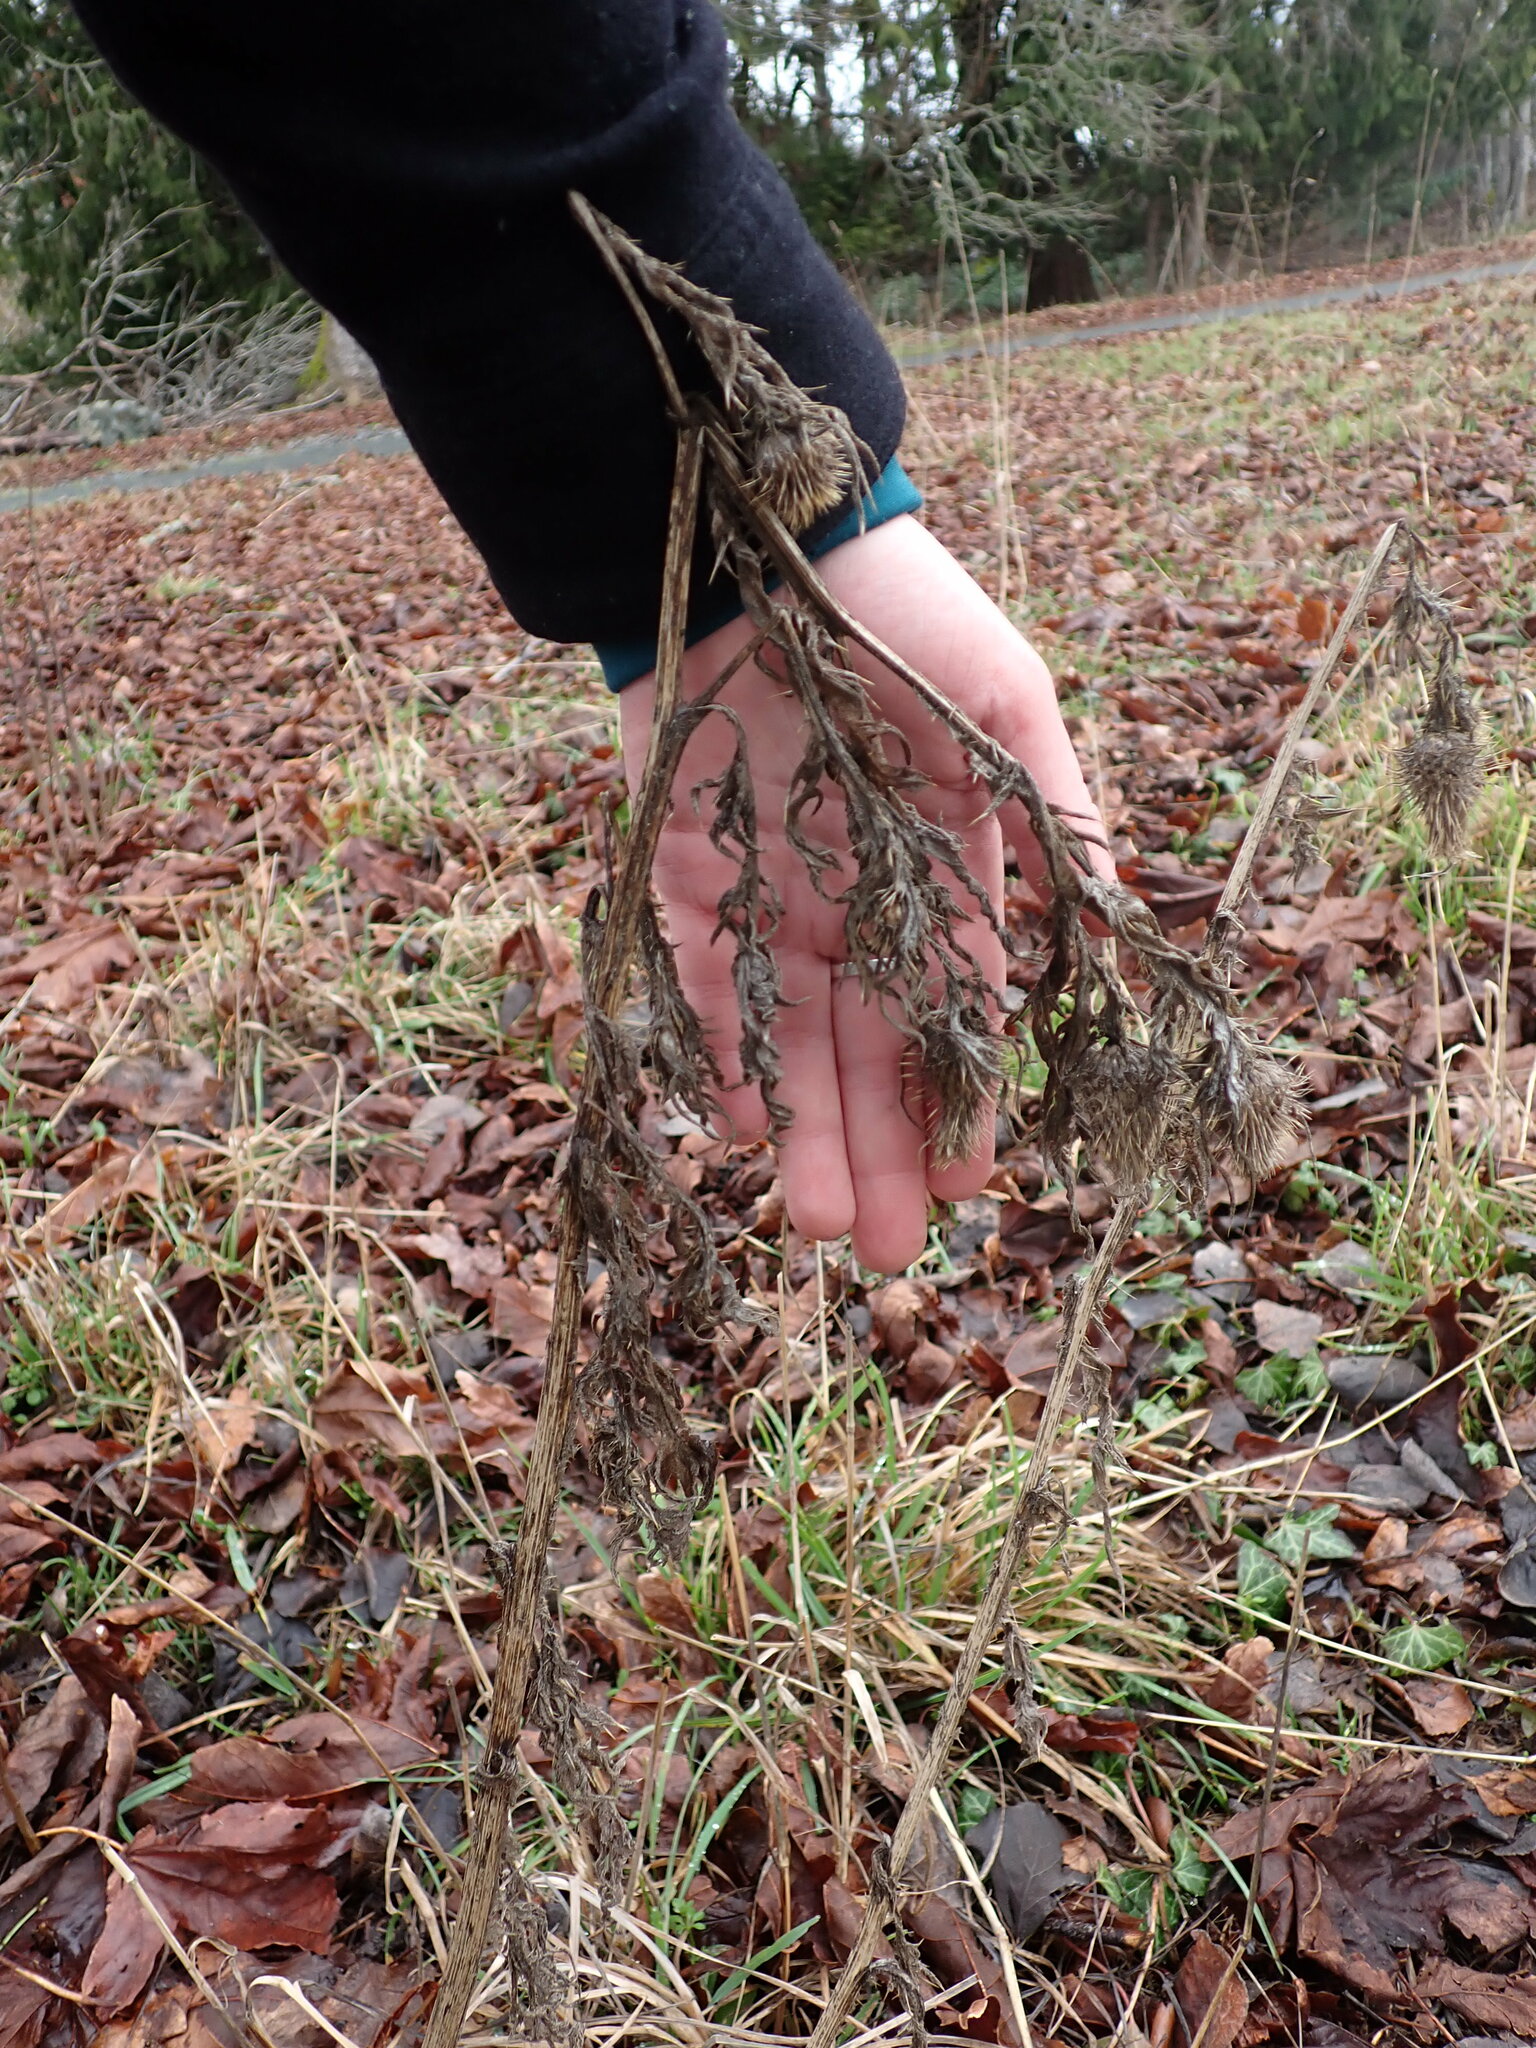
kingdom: Plantae
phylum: Tracheophyta
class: Magnoliopsida
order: Asterales
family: Asteraceae
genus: Cirsium
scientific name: Cirsium vulgare
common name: Bull thistle
